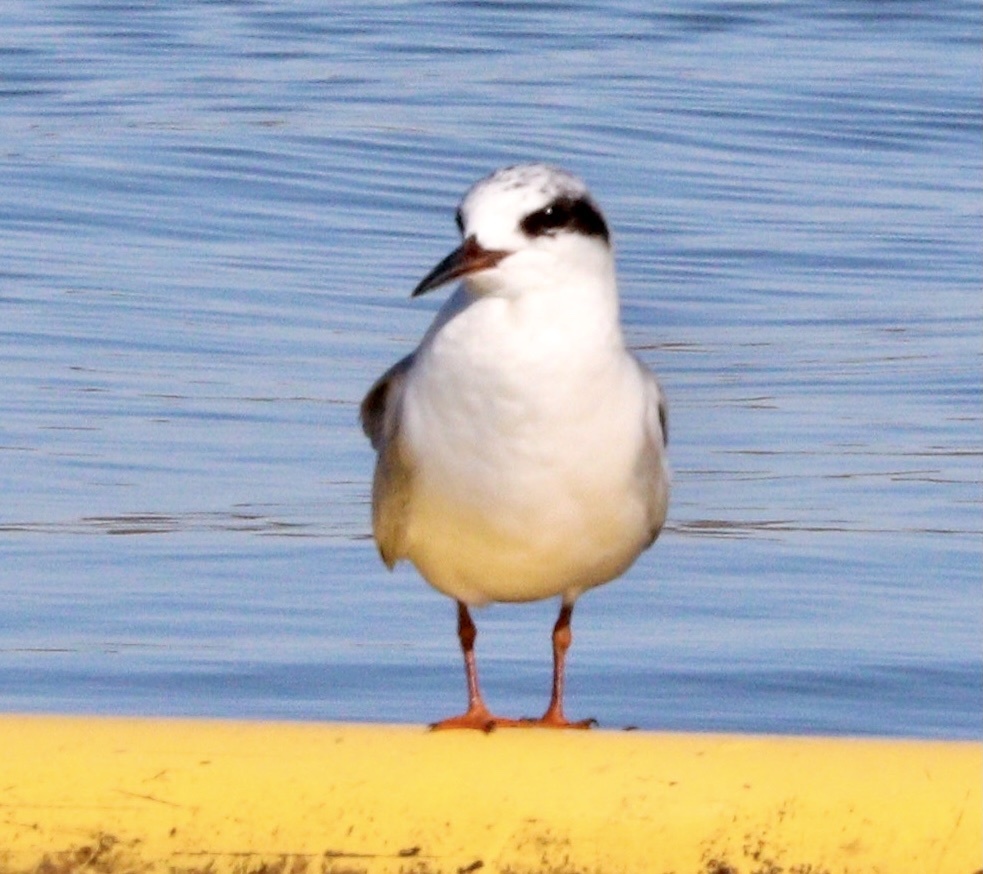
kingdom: Animalia
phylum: Chordata
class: Aves
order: Charadriiformes
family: Laridae
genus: Sterna
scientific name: Sterna forsteri
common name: Forster's tern
